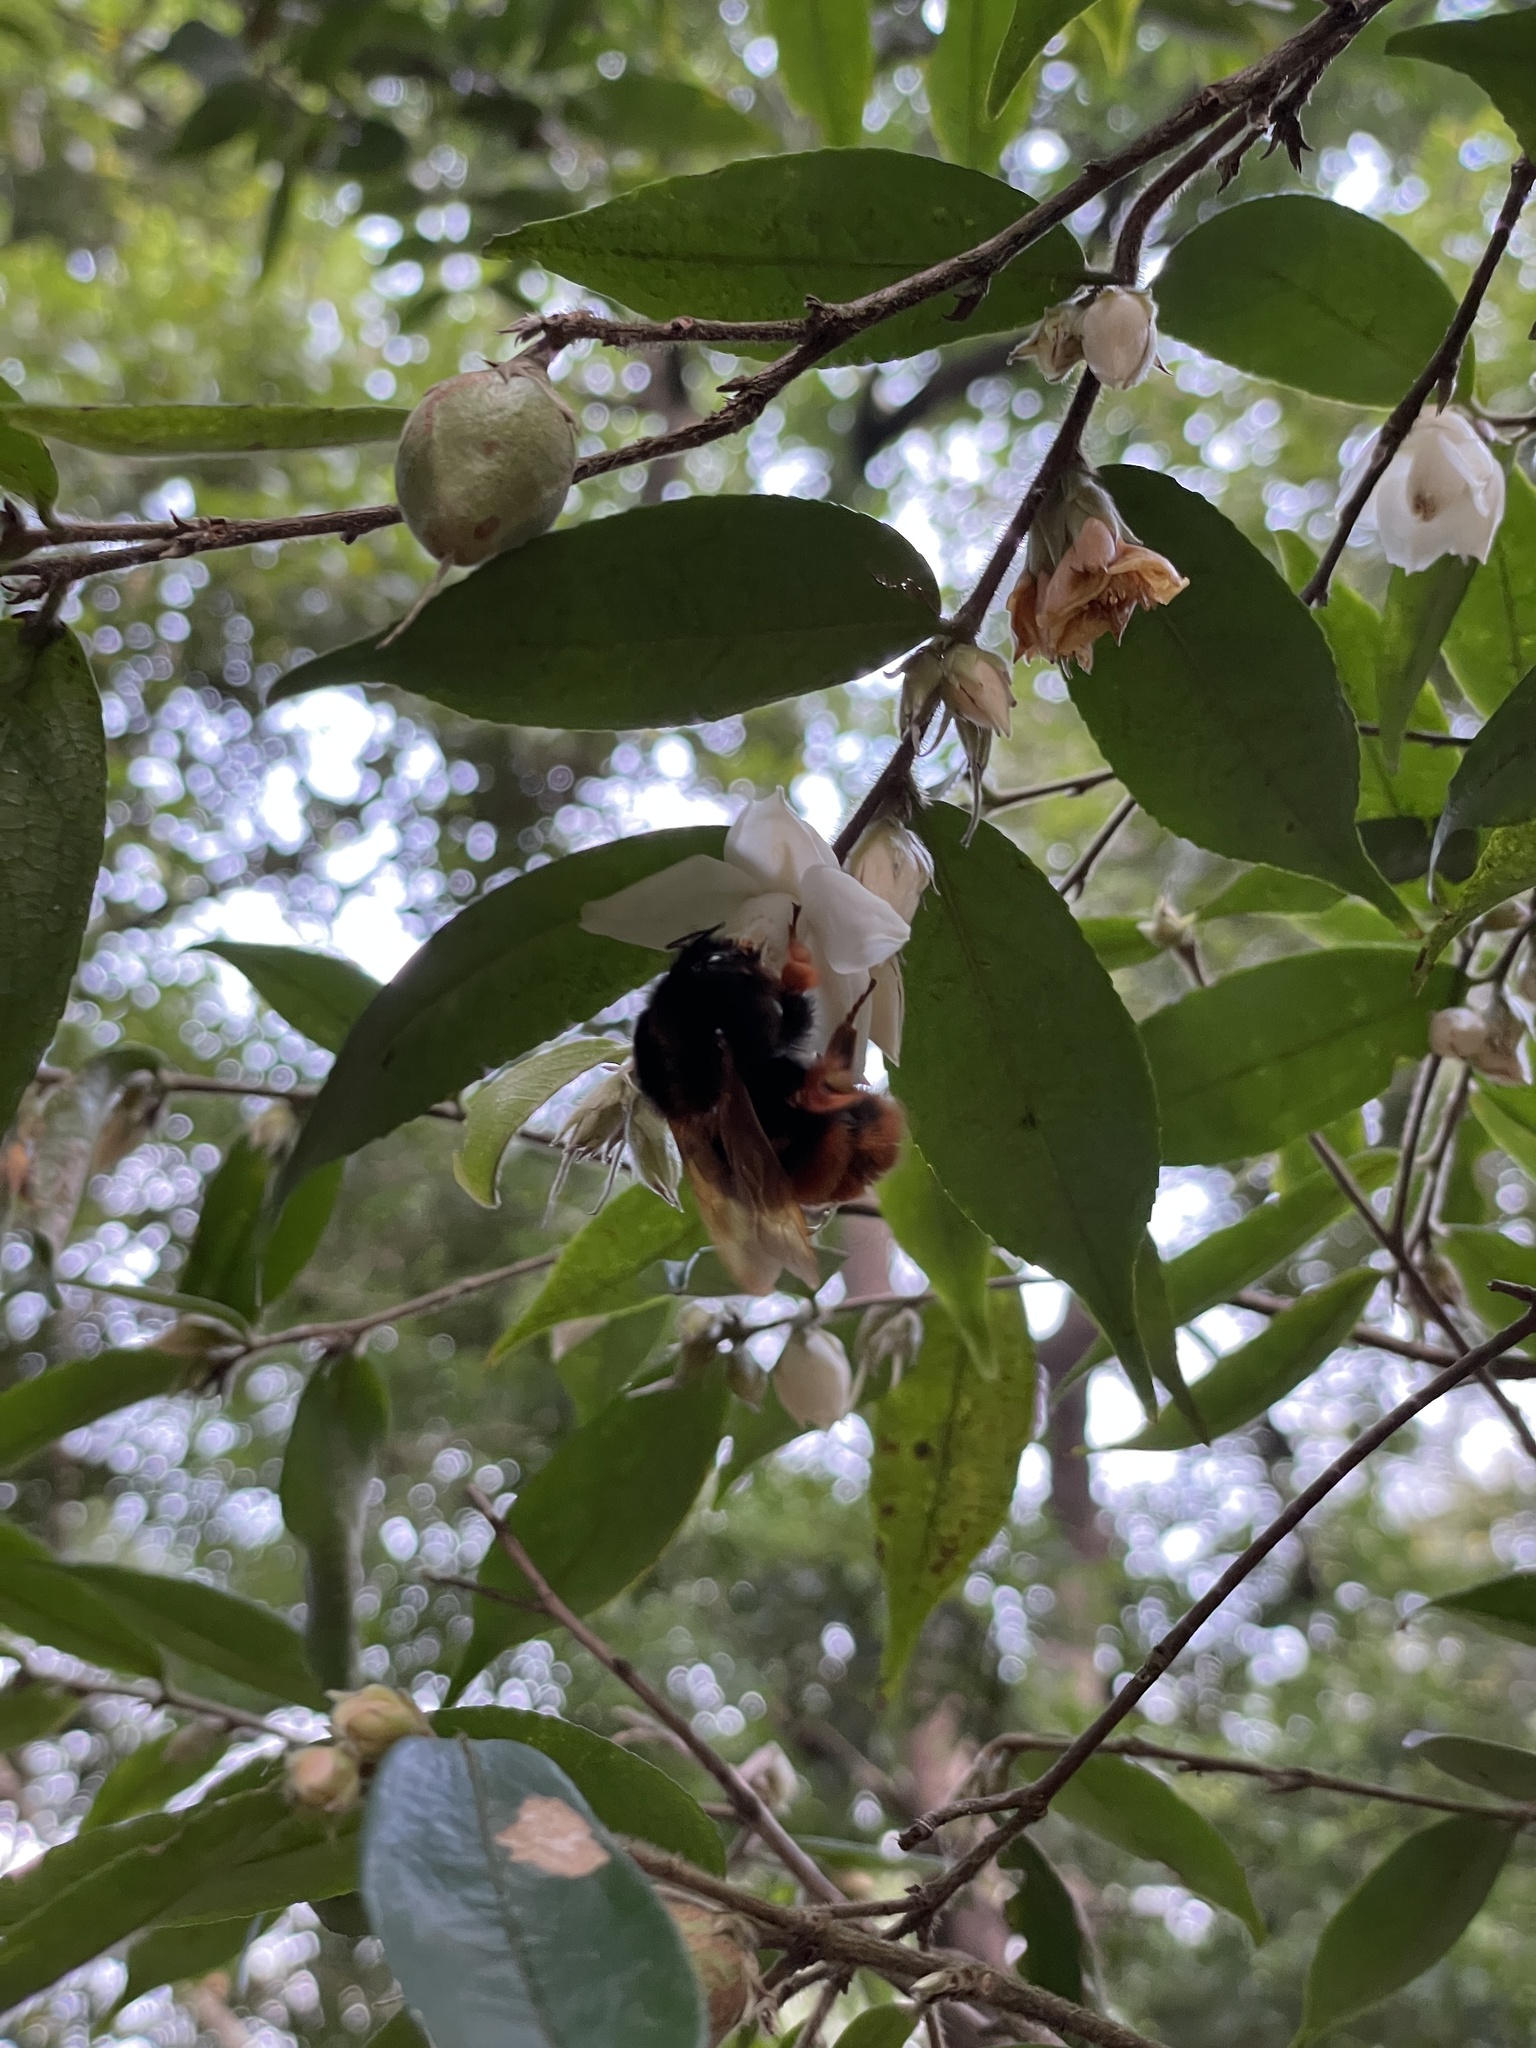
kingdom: Animalia
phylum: Arthropoda
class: Insecta
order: Hymenoptera
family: Apidae
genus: Bombus
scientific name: Bombus eximius
